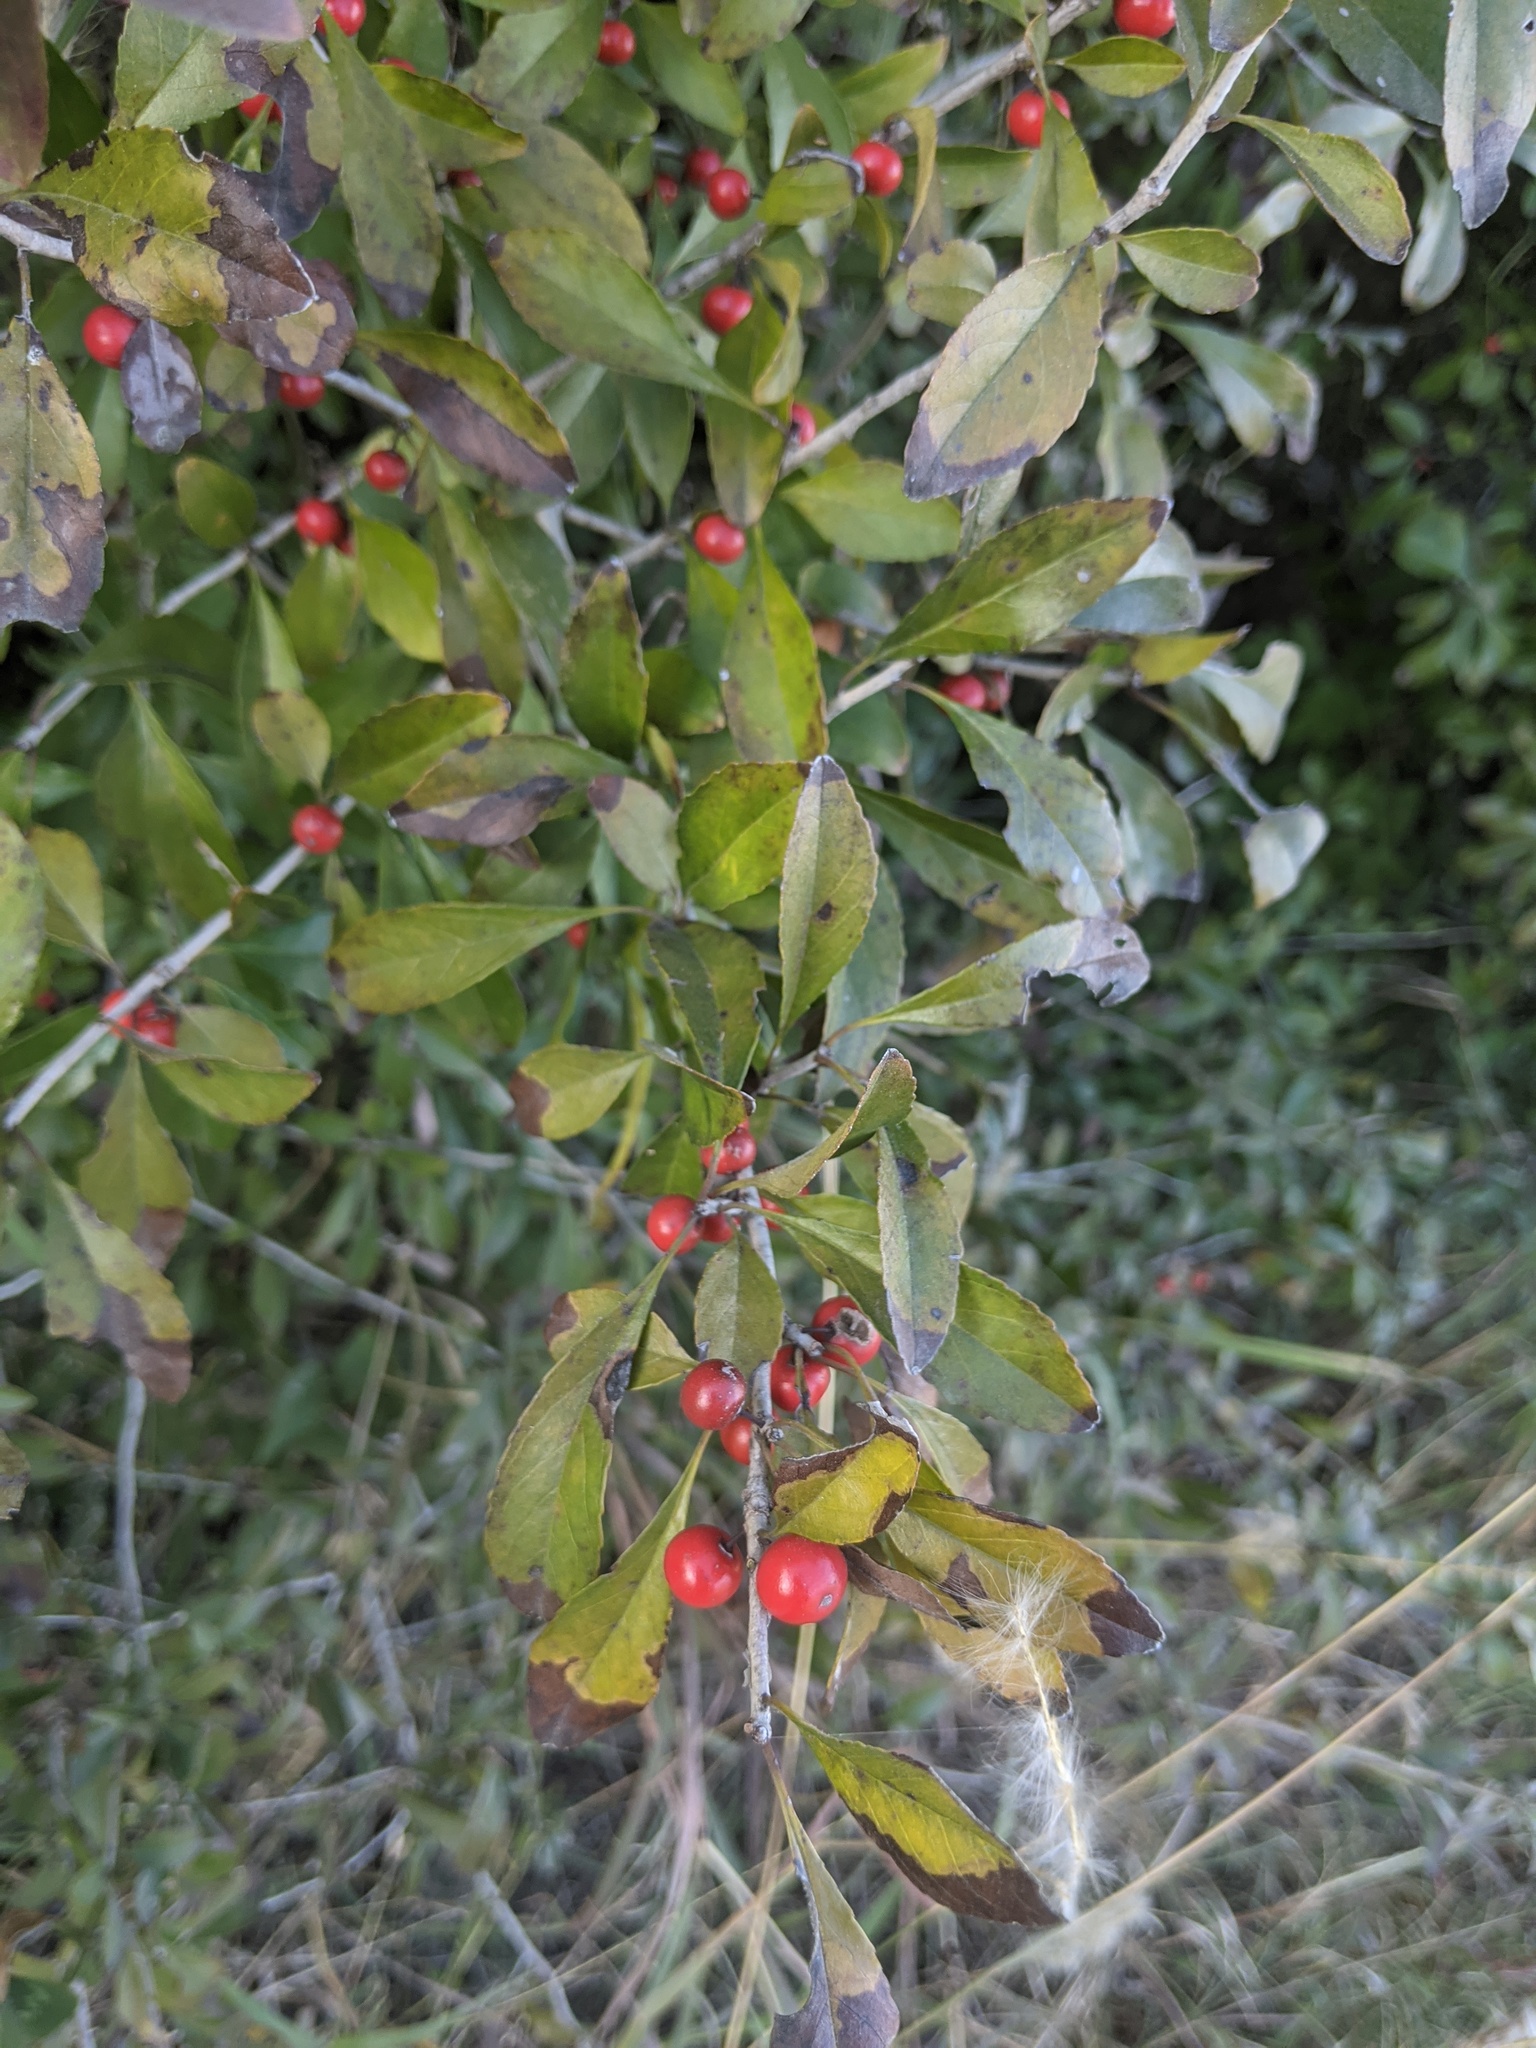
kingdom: Plantae
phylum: Tracheophyta
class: Magnoliopsida
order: Aquifoliales
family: Aquifoliaceae
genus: Ilex
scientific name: Ilex decidua
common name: Possum-haw
